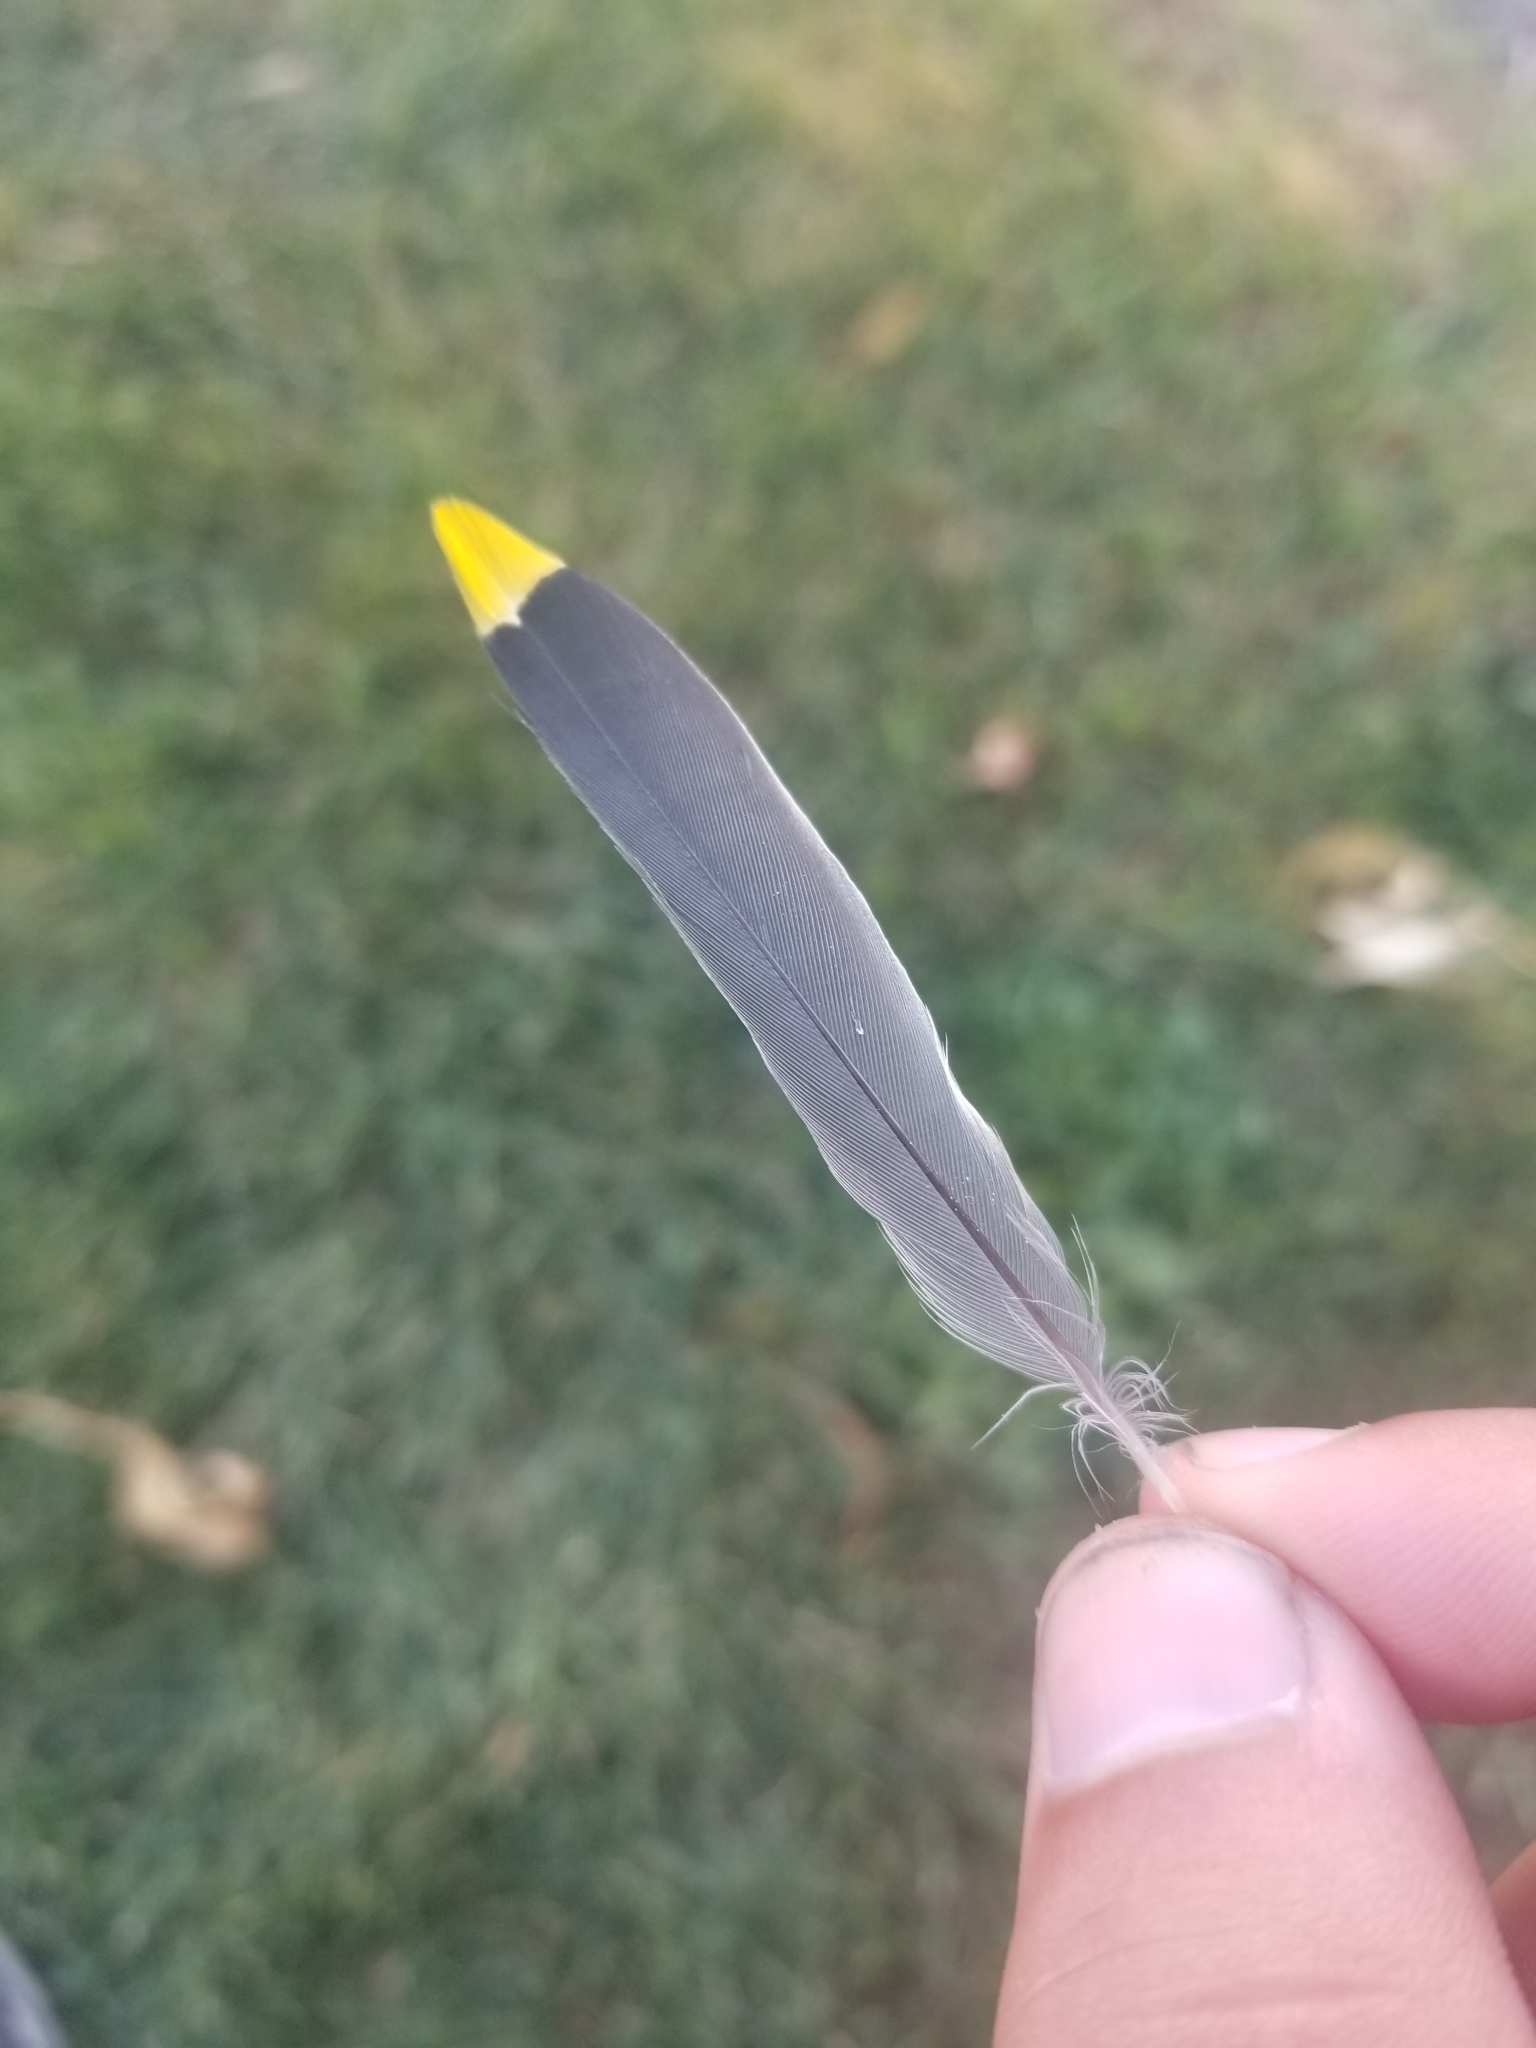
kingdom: Animalia
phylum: Chordata
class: Aves
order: Passeriformes
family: Bombycillidae
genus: Bombycilla
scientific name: Bombycilla cedrorum
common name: Cedar waxwing
